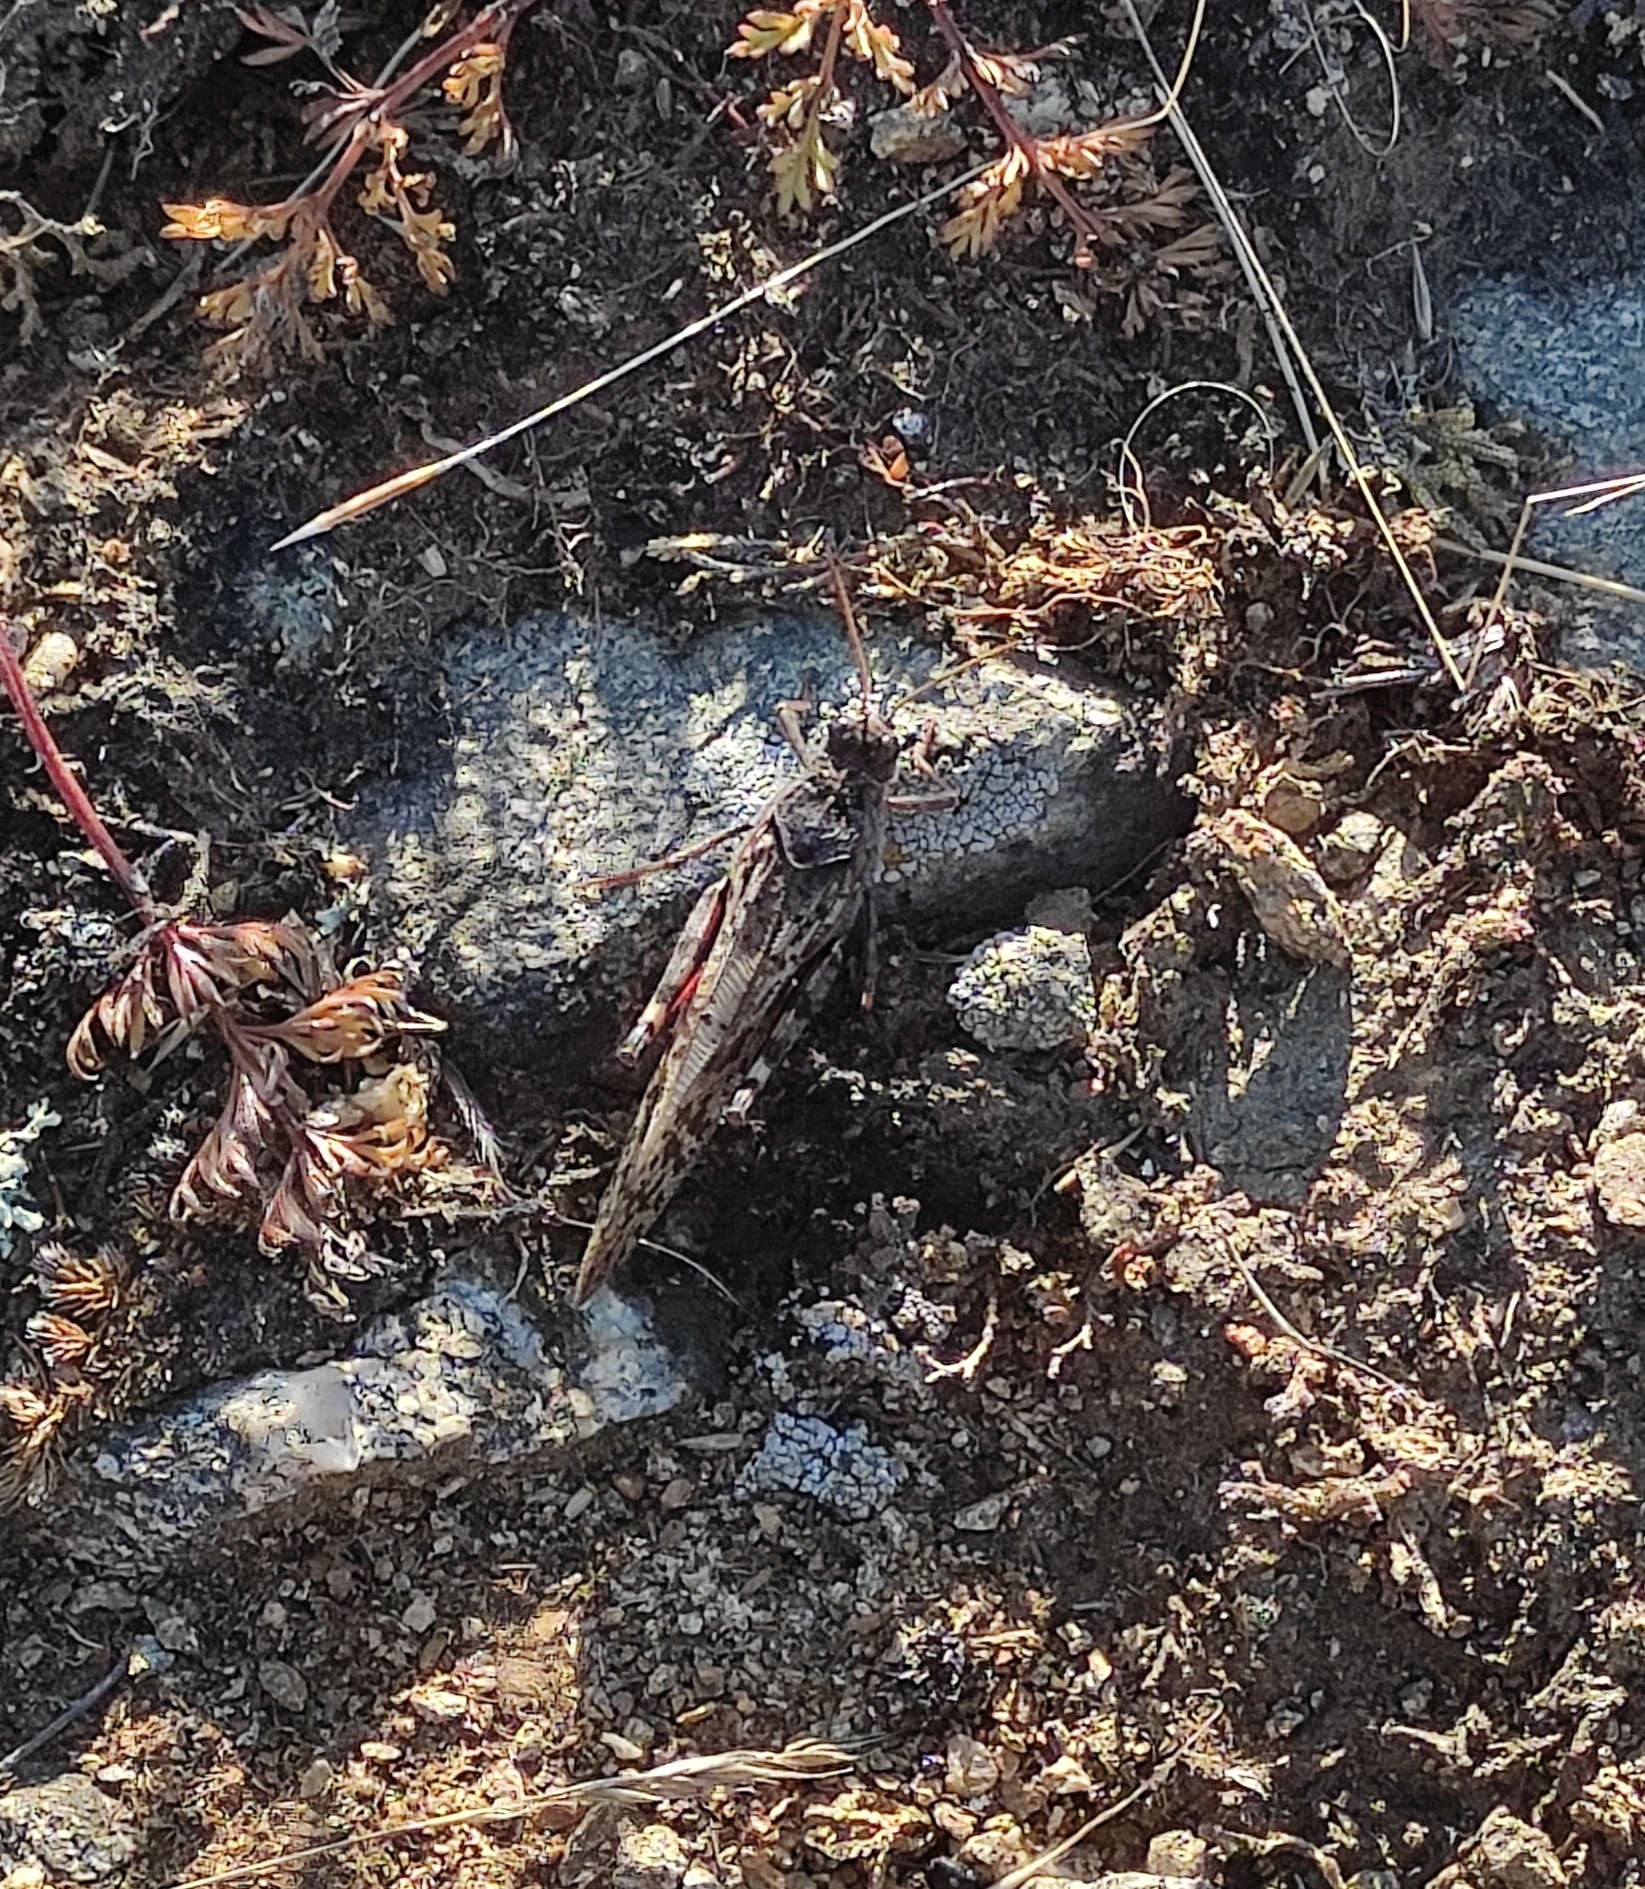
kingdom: Animalia
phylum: Arthropoda
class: Insecta
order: Orthoptera
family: Acrididae
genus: Angaracris
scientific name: Angaracris barabensis
